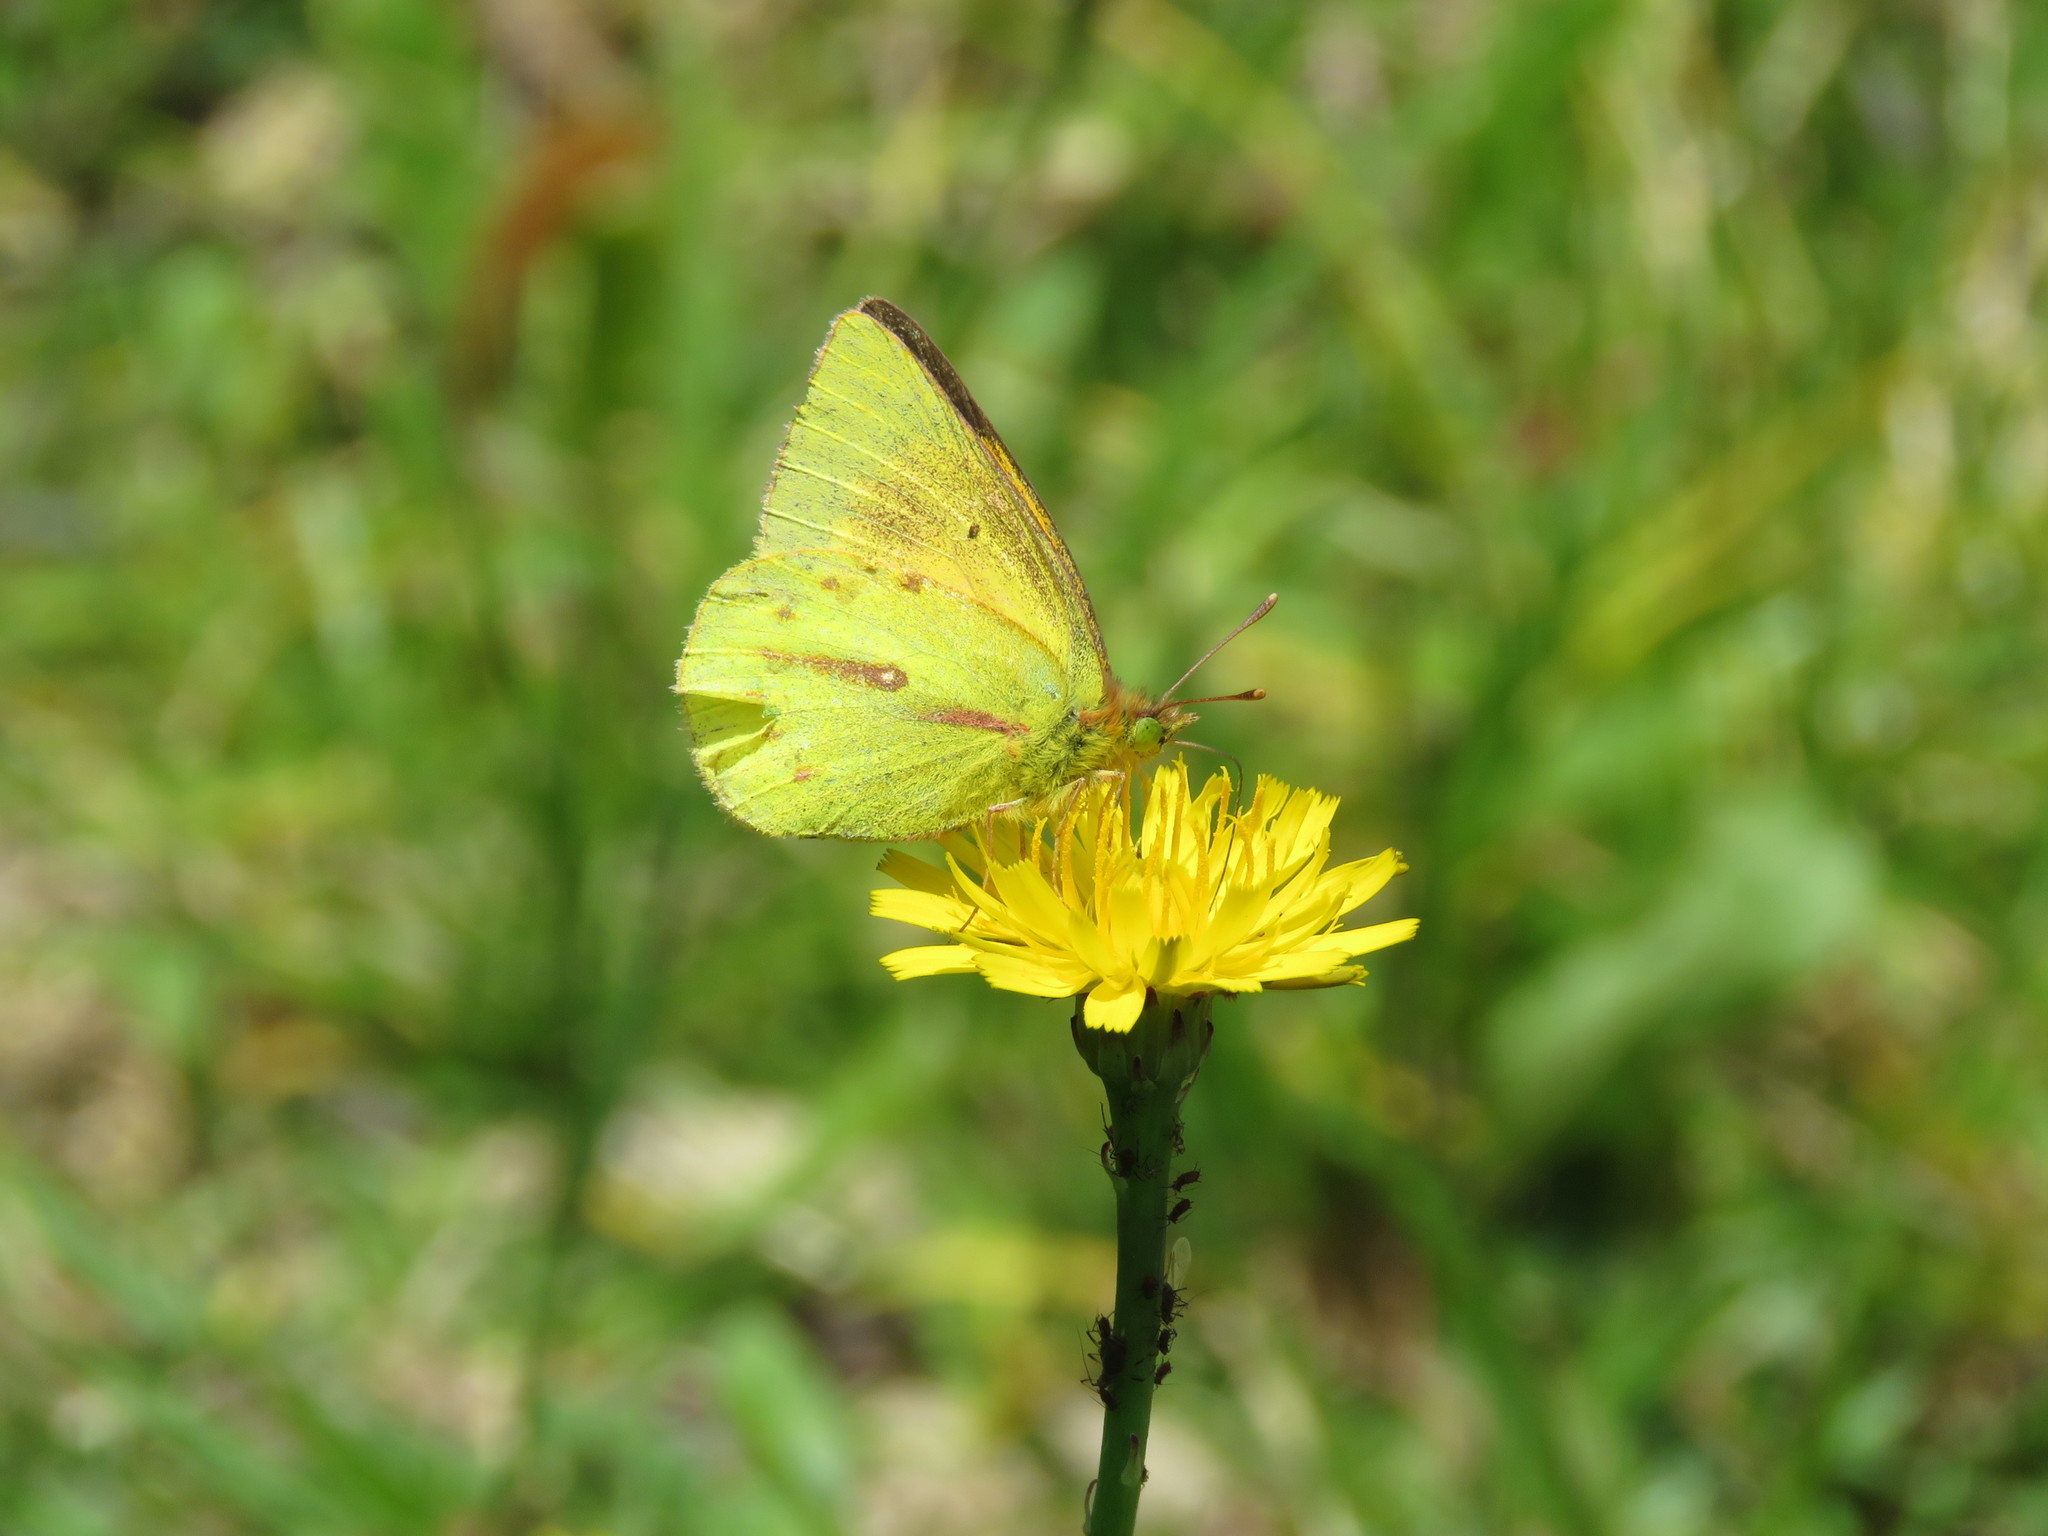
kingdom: Animalia
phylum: Arthropoda
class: Insecta
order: Lepidoptera
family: Pieridae
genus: Colias
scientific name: Colias dimera
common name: Dimera sulphur
